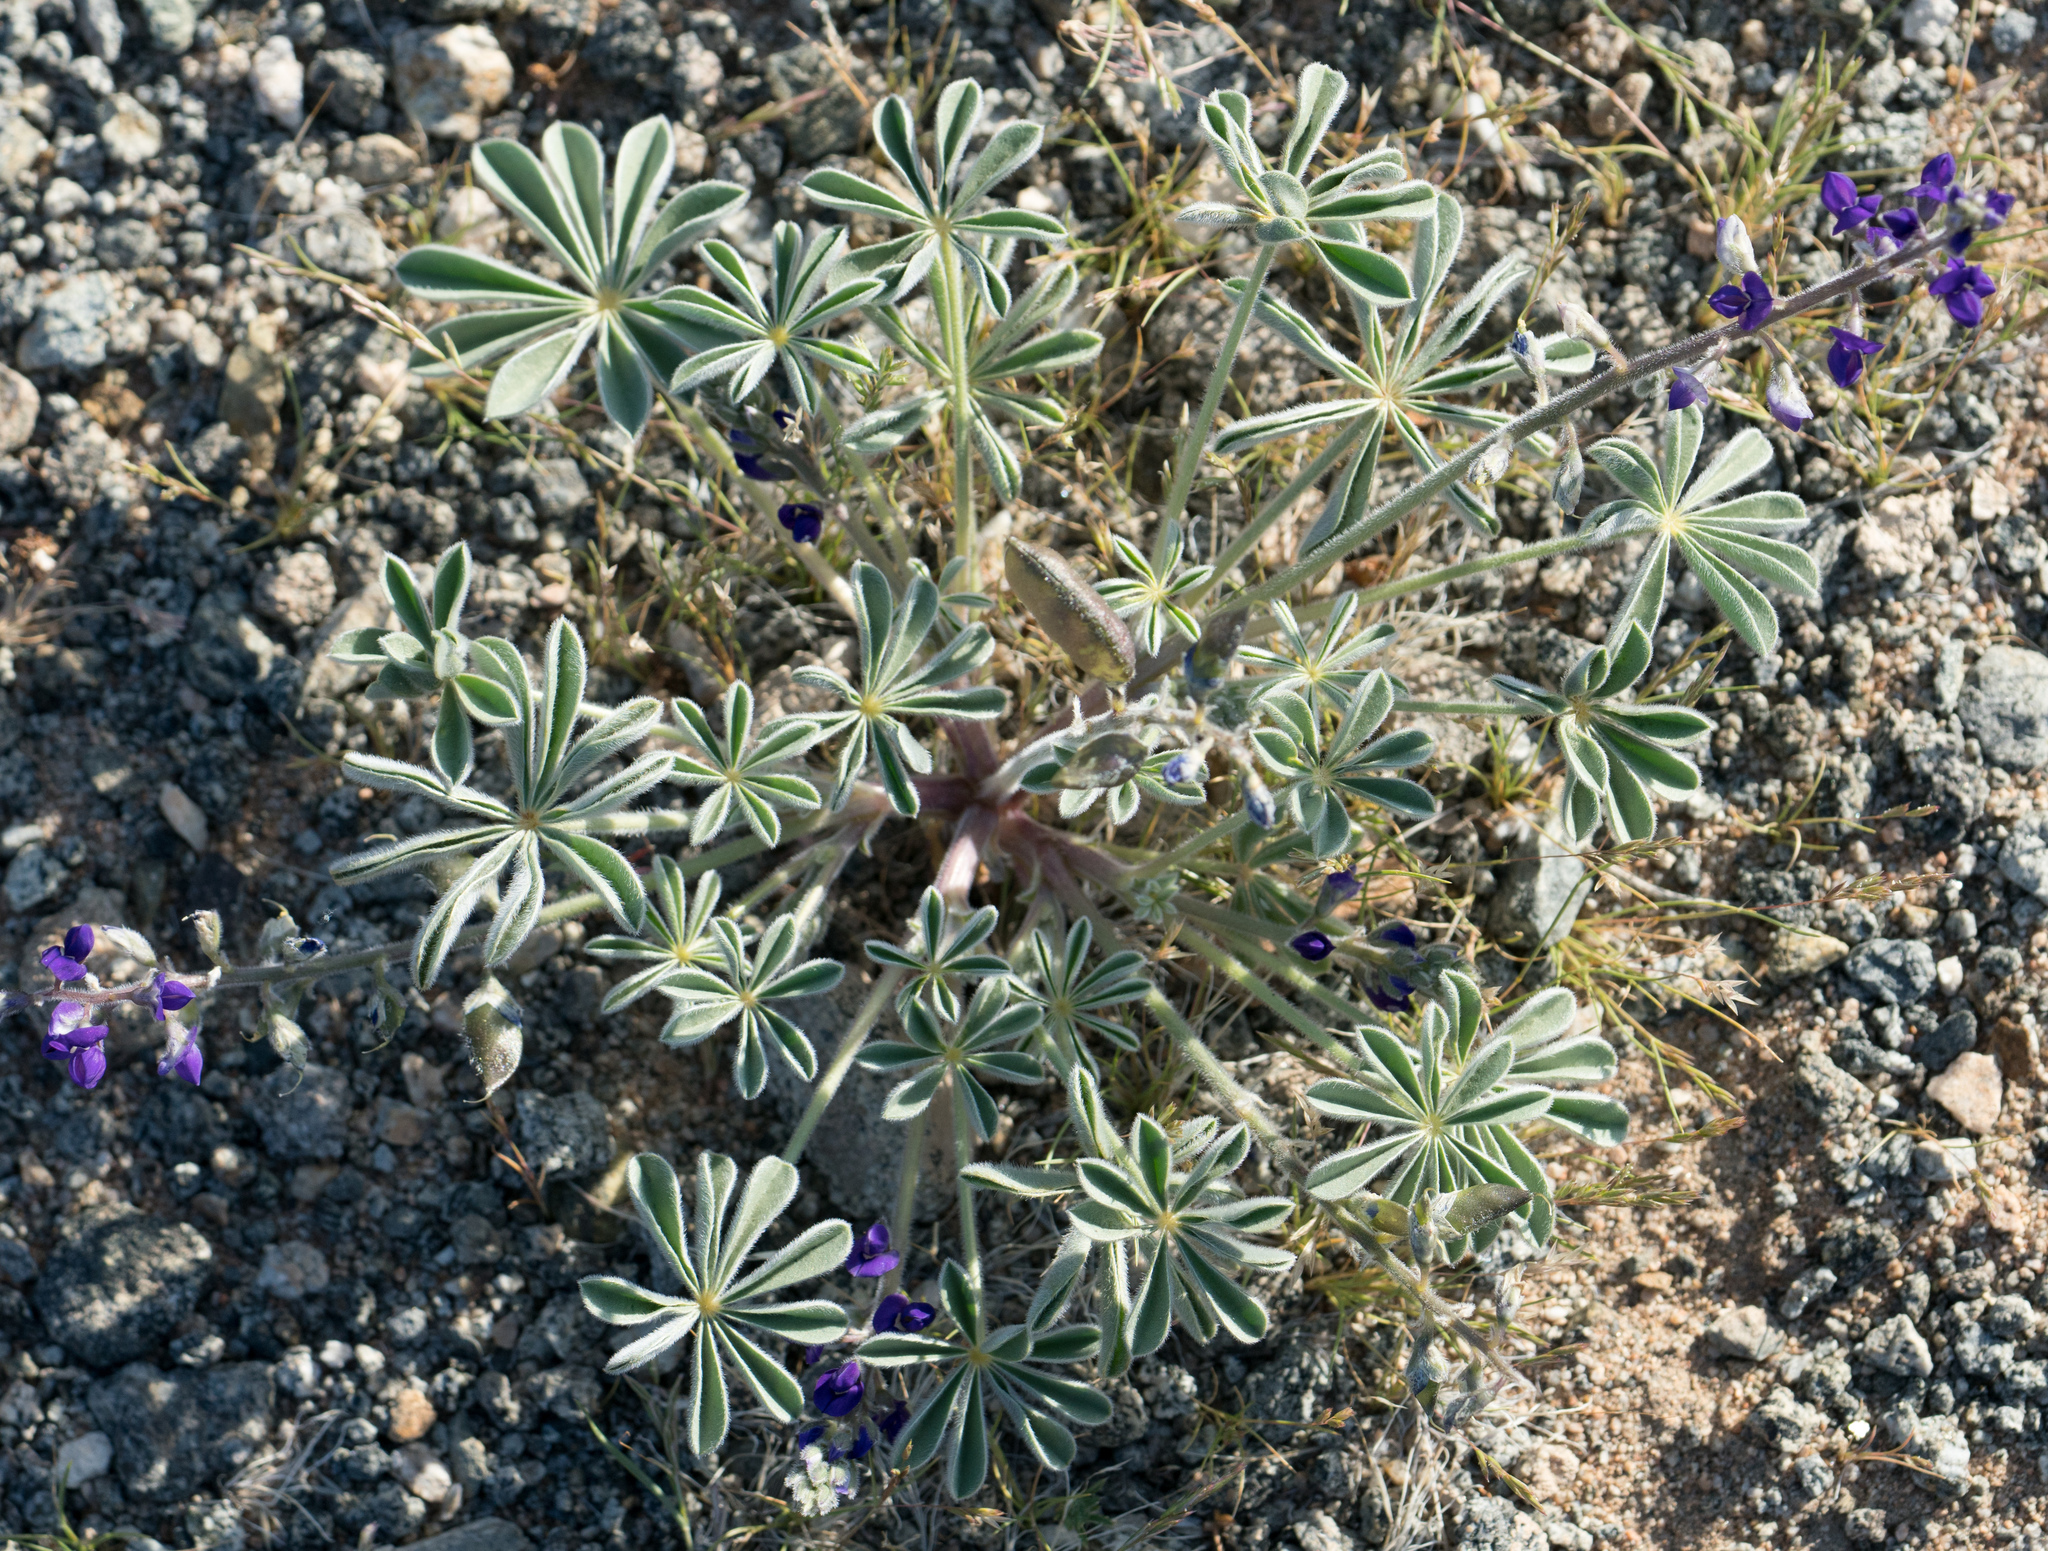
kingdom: Plantae
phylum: Tracheophyta
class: Magnoliopsida
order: Fabales
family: Fabaceae
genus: Lupinus
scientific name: Lupinus shockleyi
